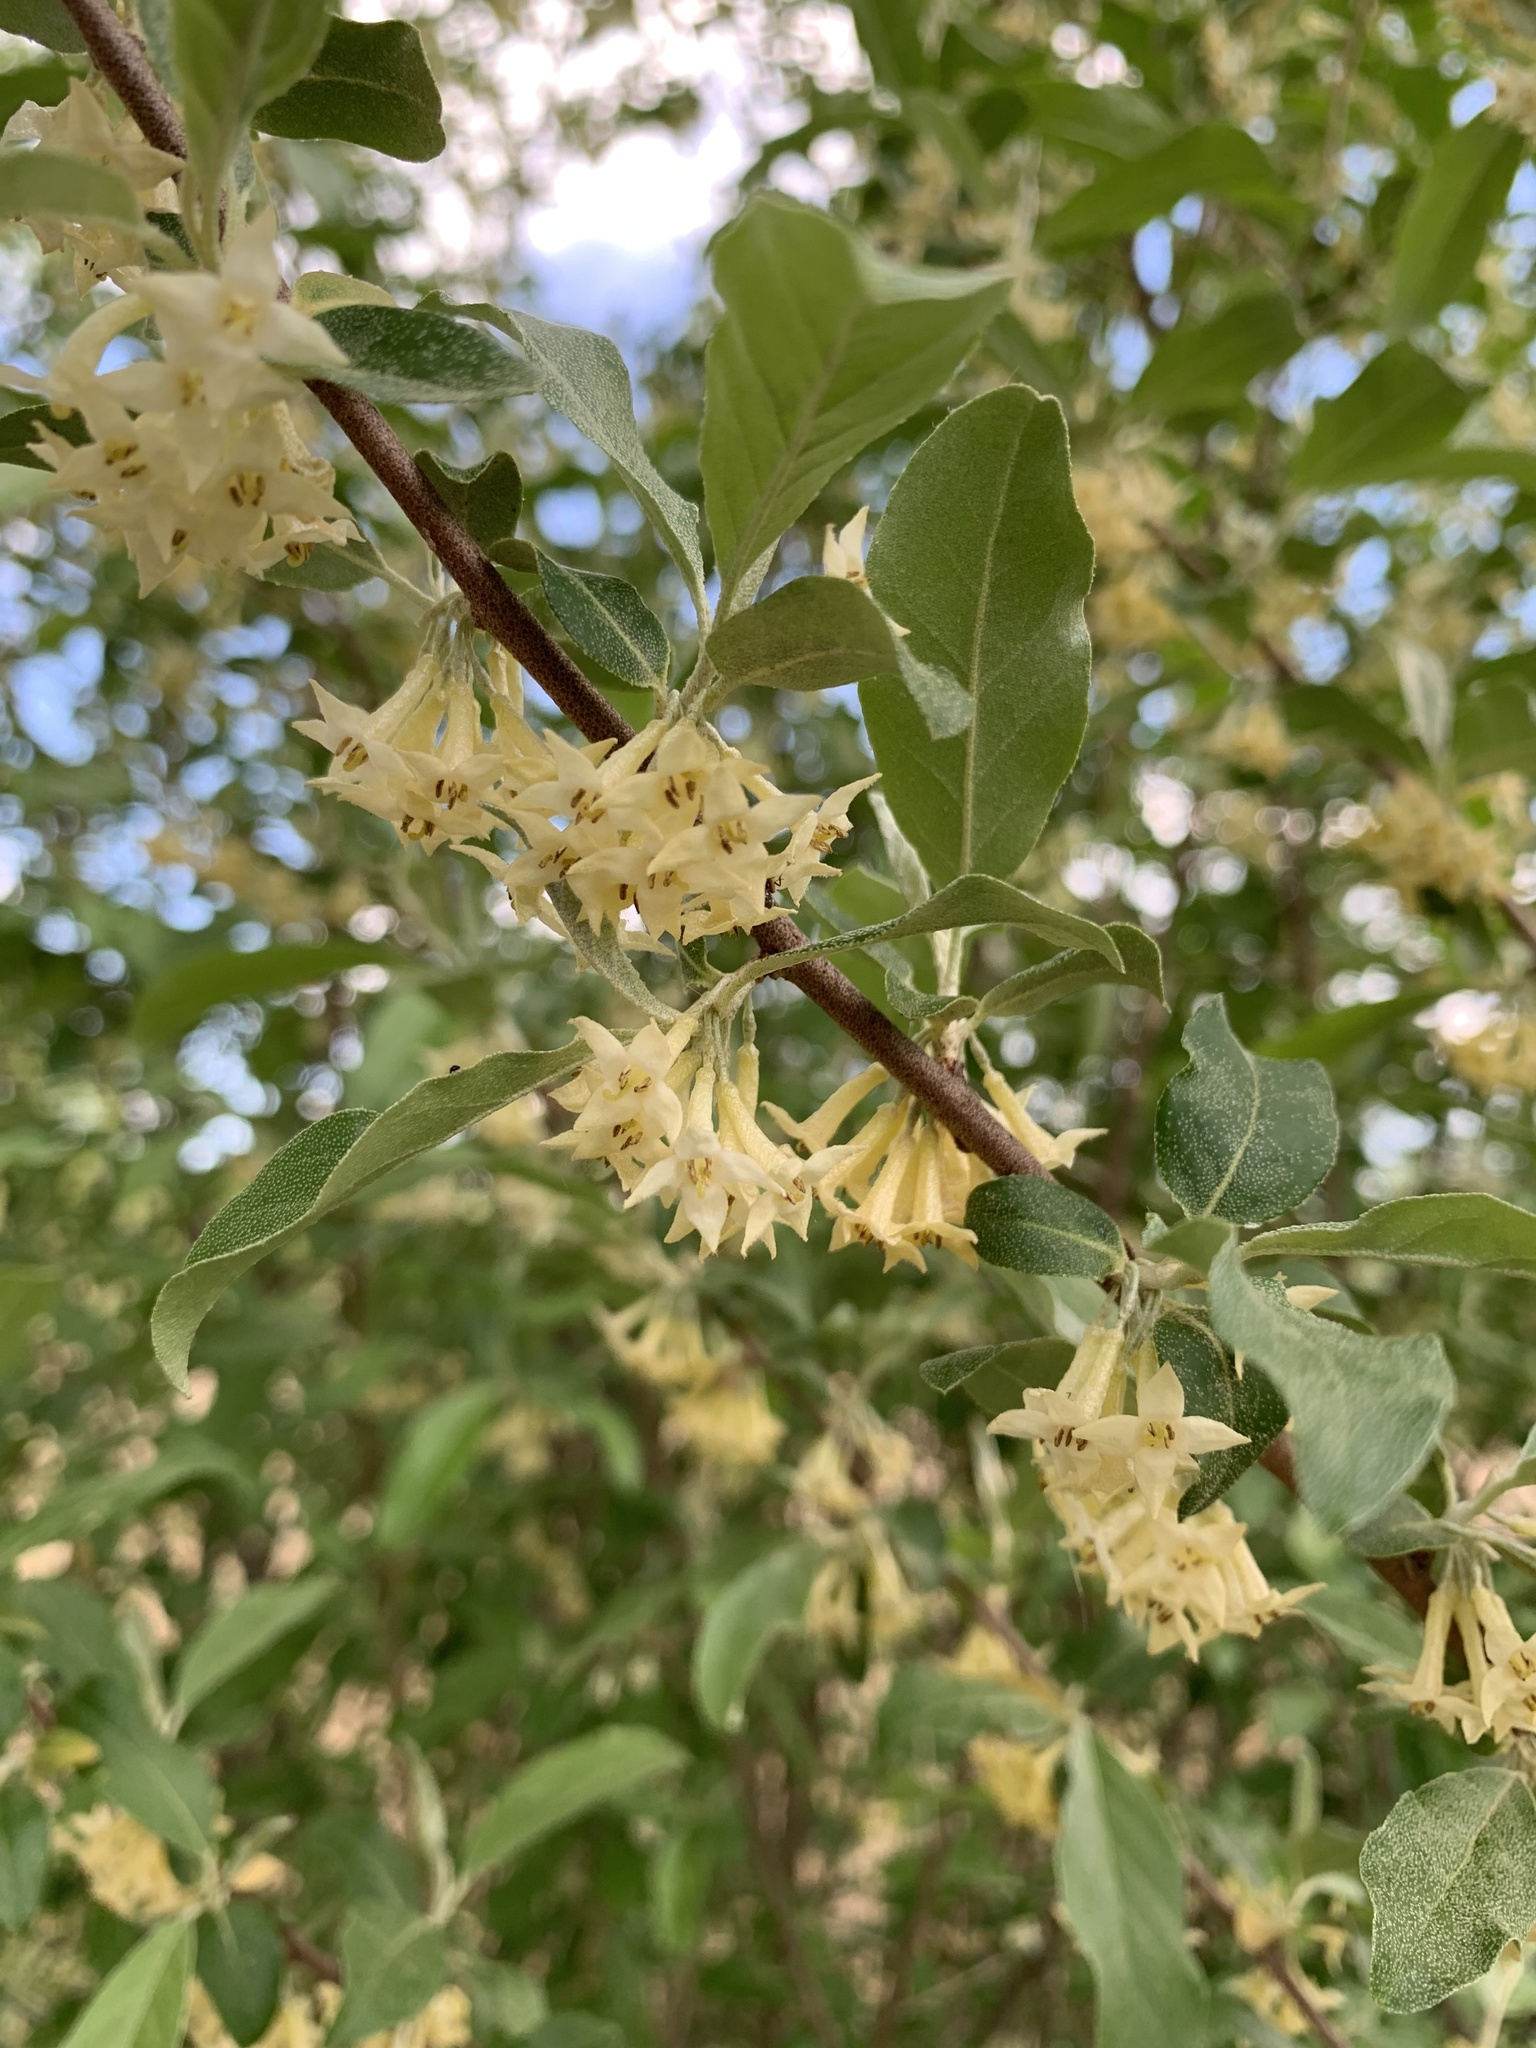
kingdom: Plantae
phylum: Tracheophyta
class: Magnoliopsida
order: Rosales
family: Elaeagnaceae
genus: Elaeagnus
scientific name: Elaeagnus umbellata
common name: Autumn olive
